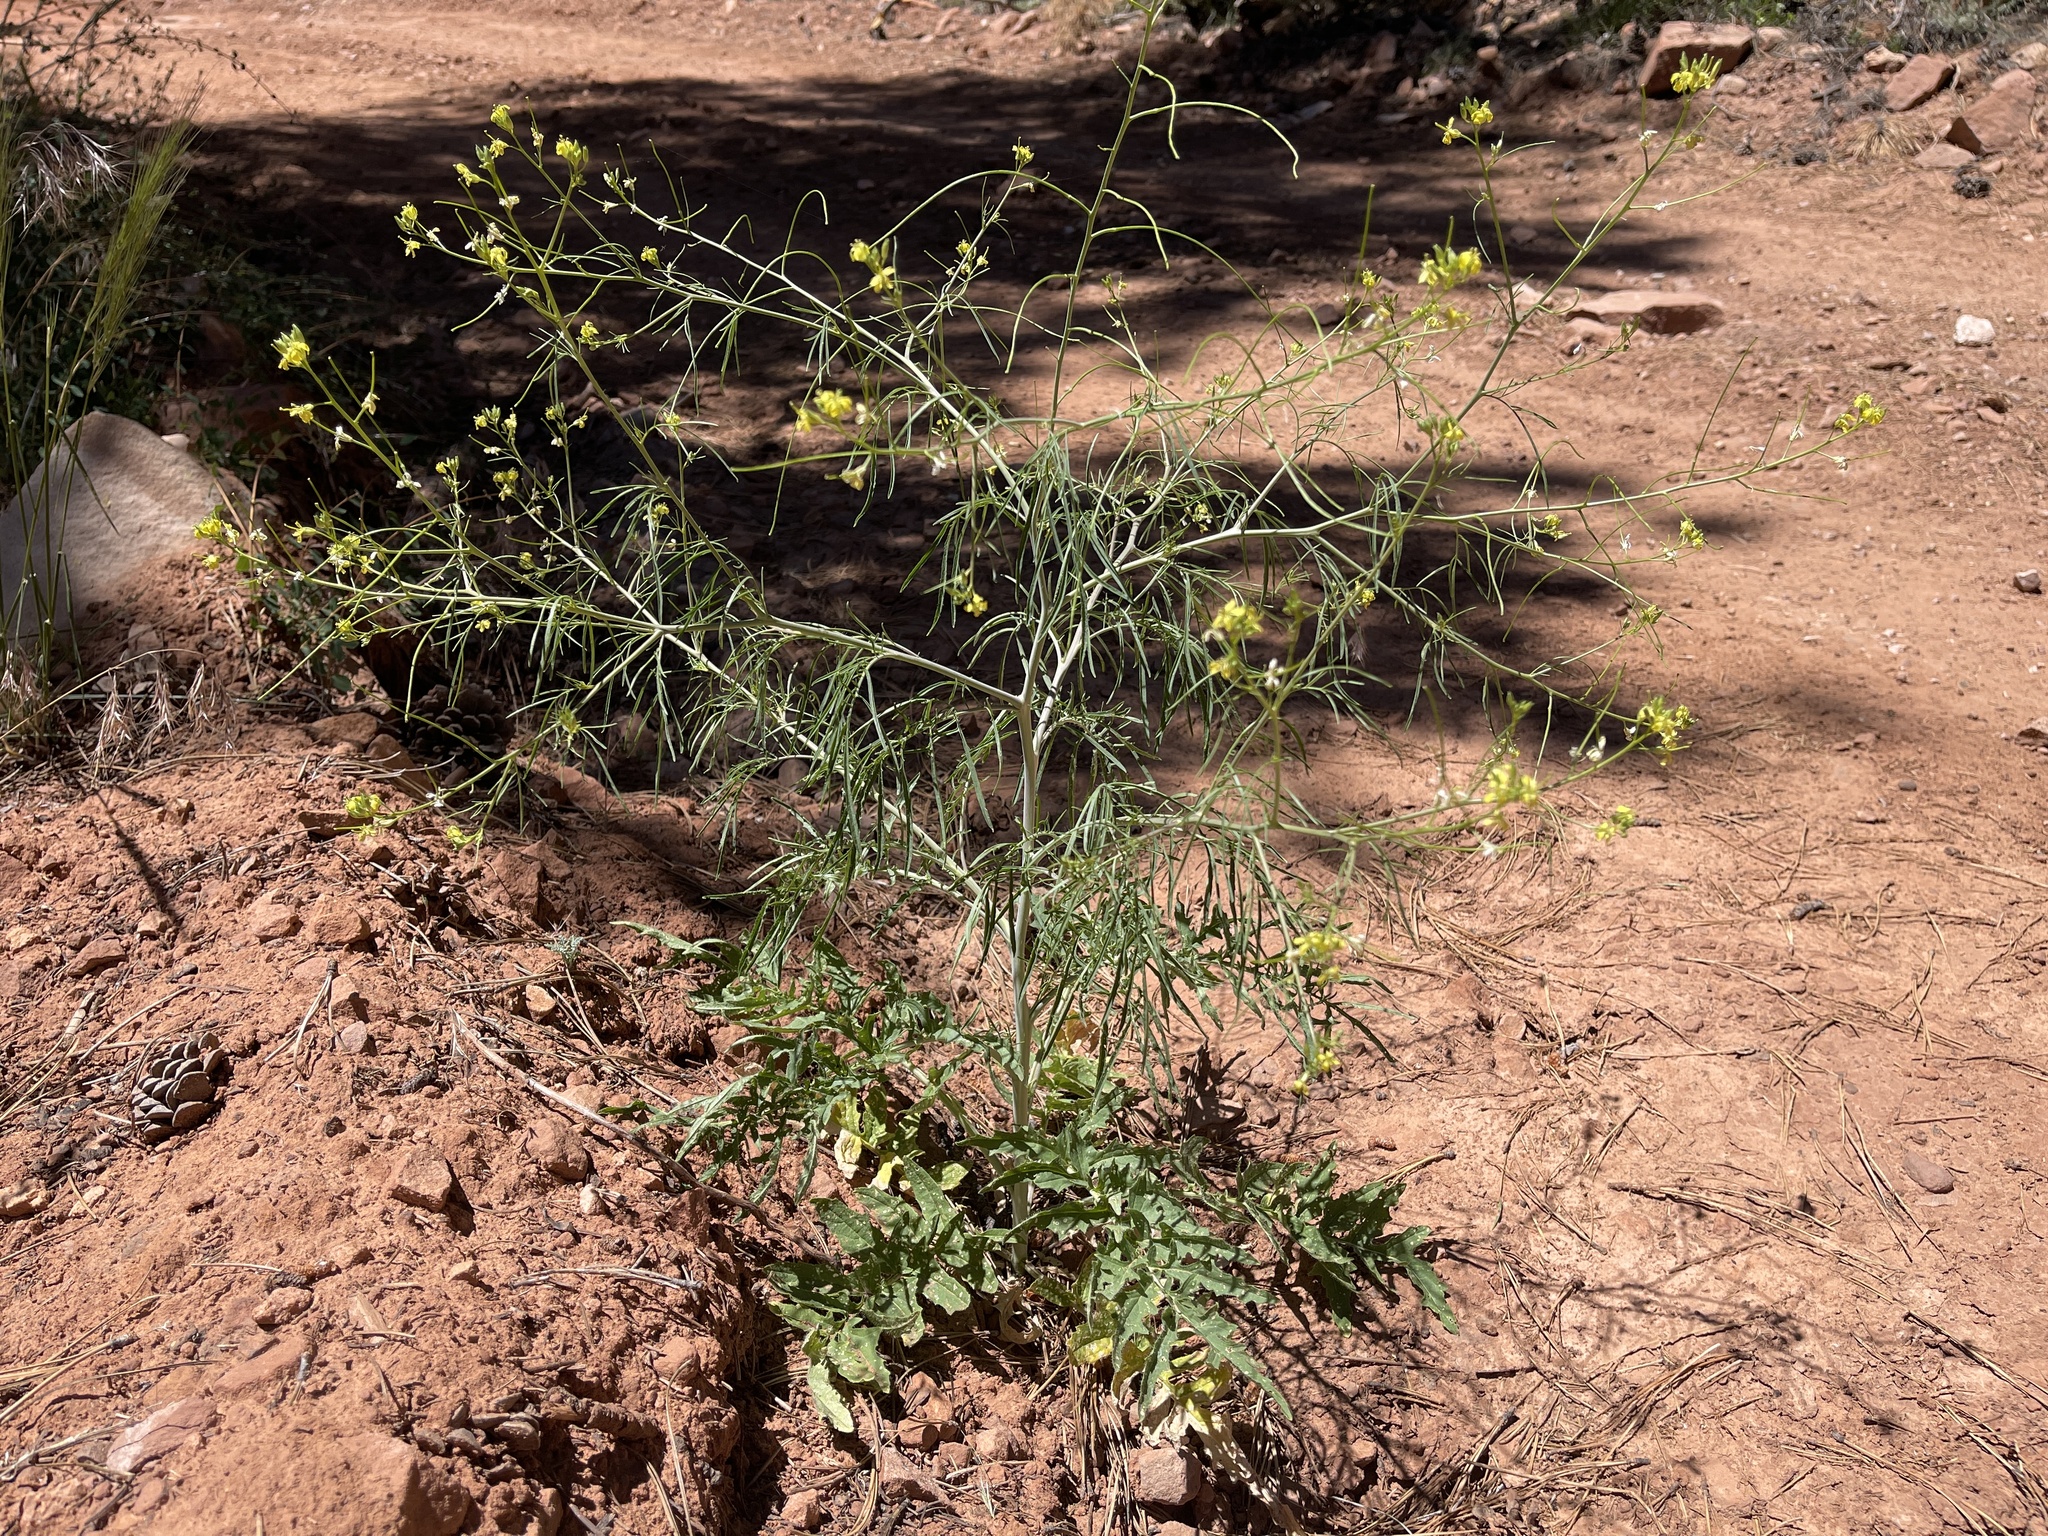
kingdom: Plantae
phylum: Tracheophyta
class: Magnoliopsida
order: Brassicales
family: Brassicaceae
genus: Sisymbrium
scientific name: Sisymbrium altissimum
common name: Tall rocket
